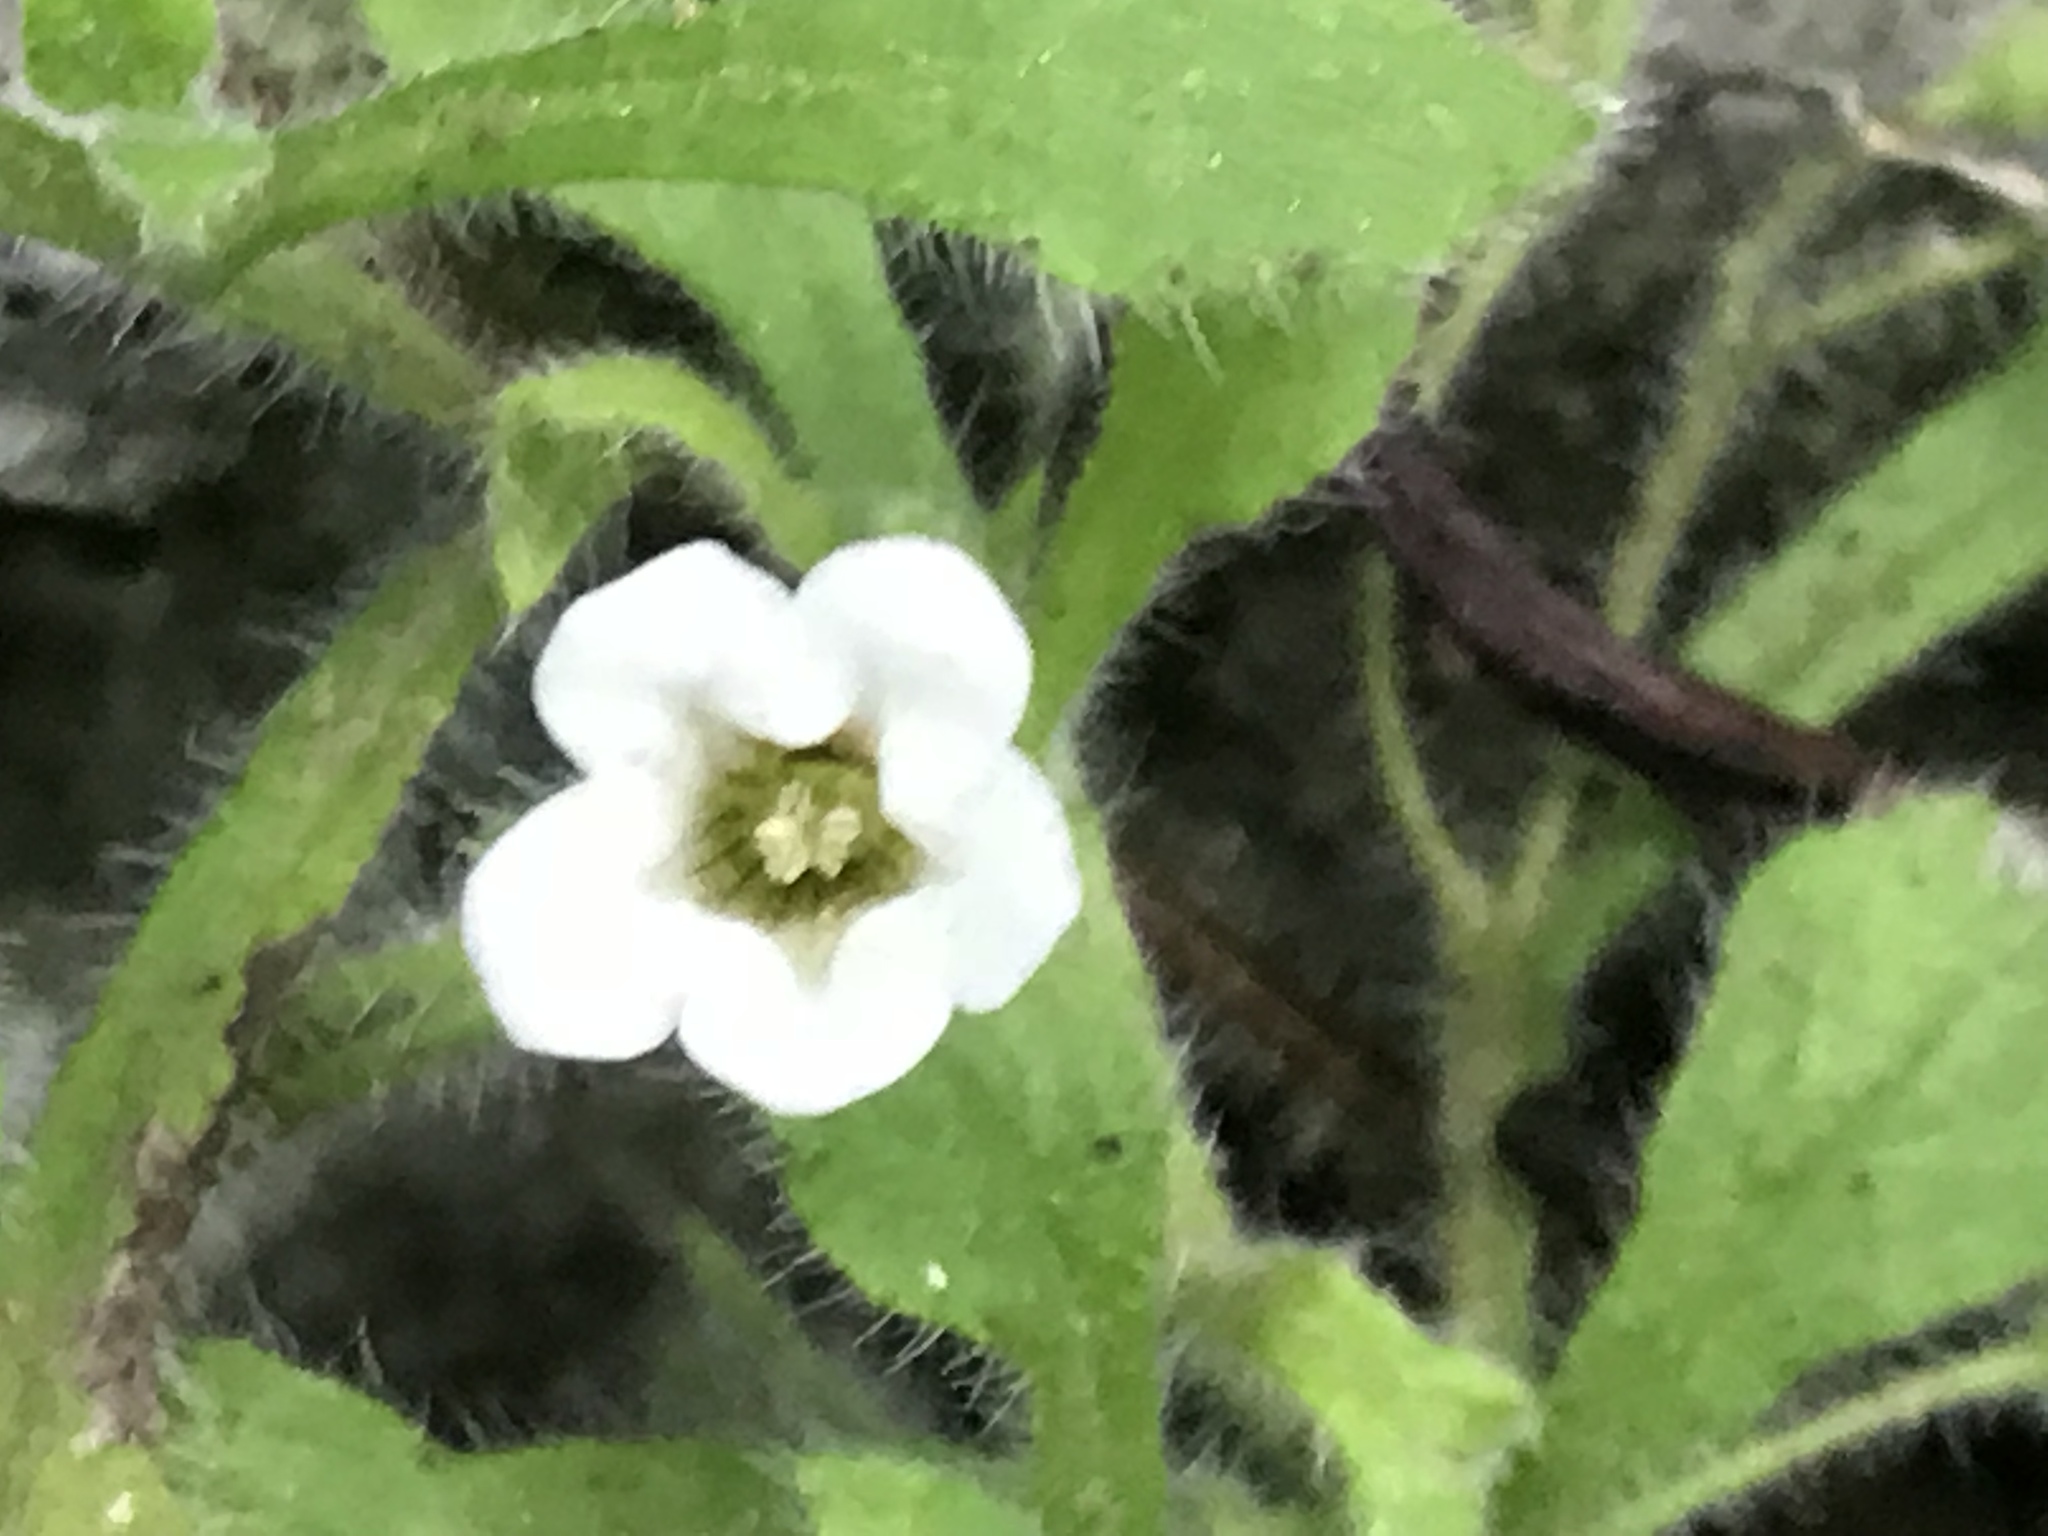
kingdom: Plantae
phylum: Tracheophyta
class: Magnoliopsida
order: Boraginales
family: Namaceae
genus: Nama
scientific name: Nama jamaicensis
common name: Jamaicanweed
